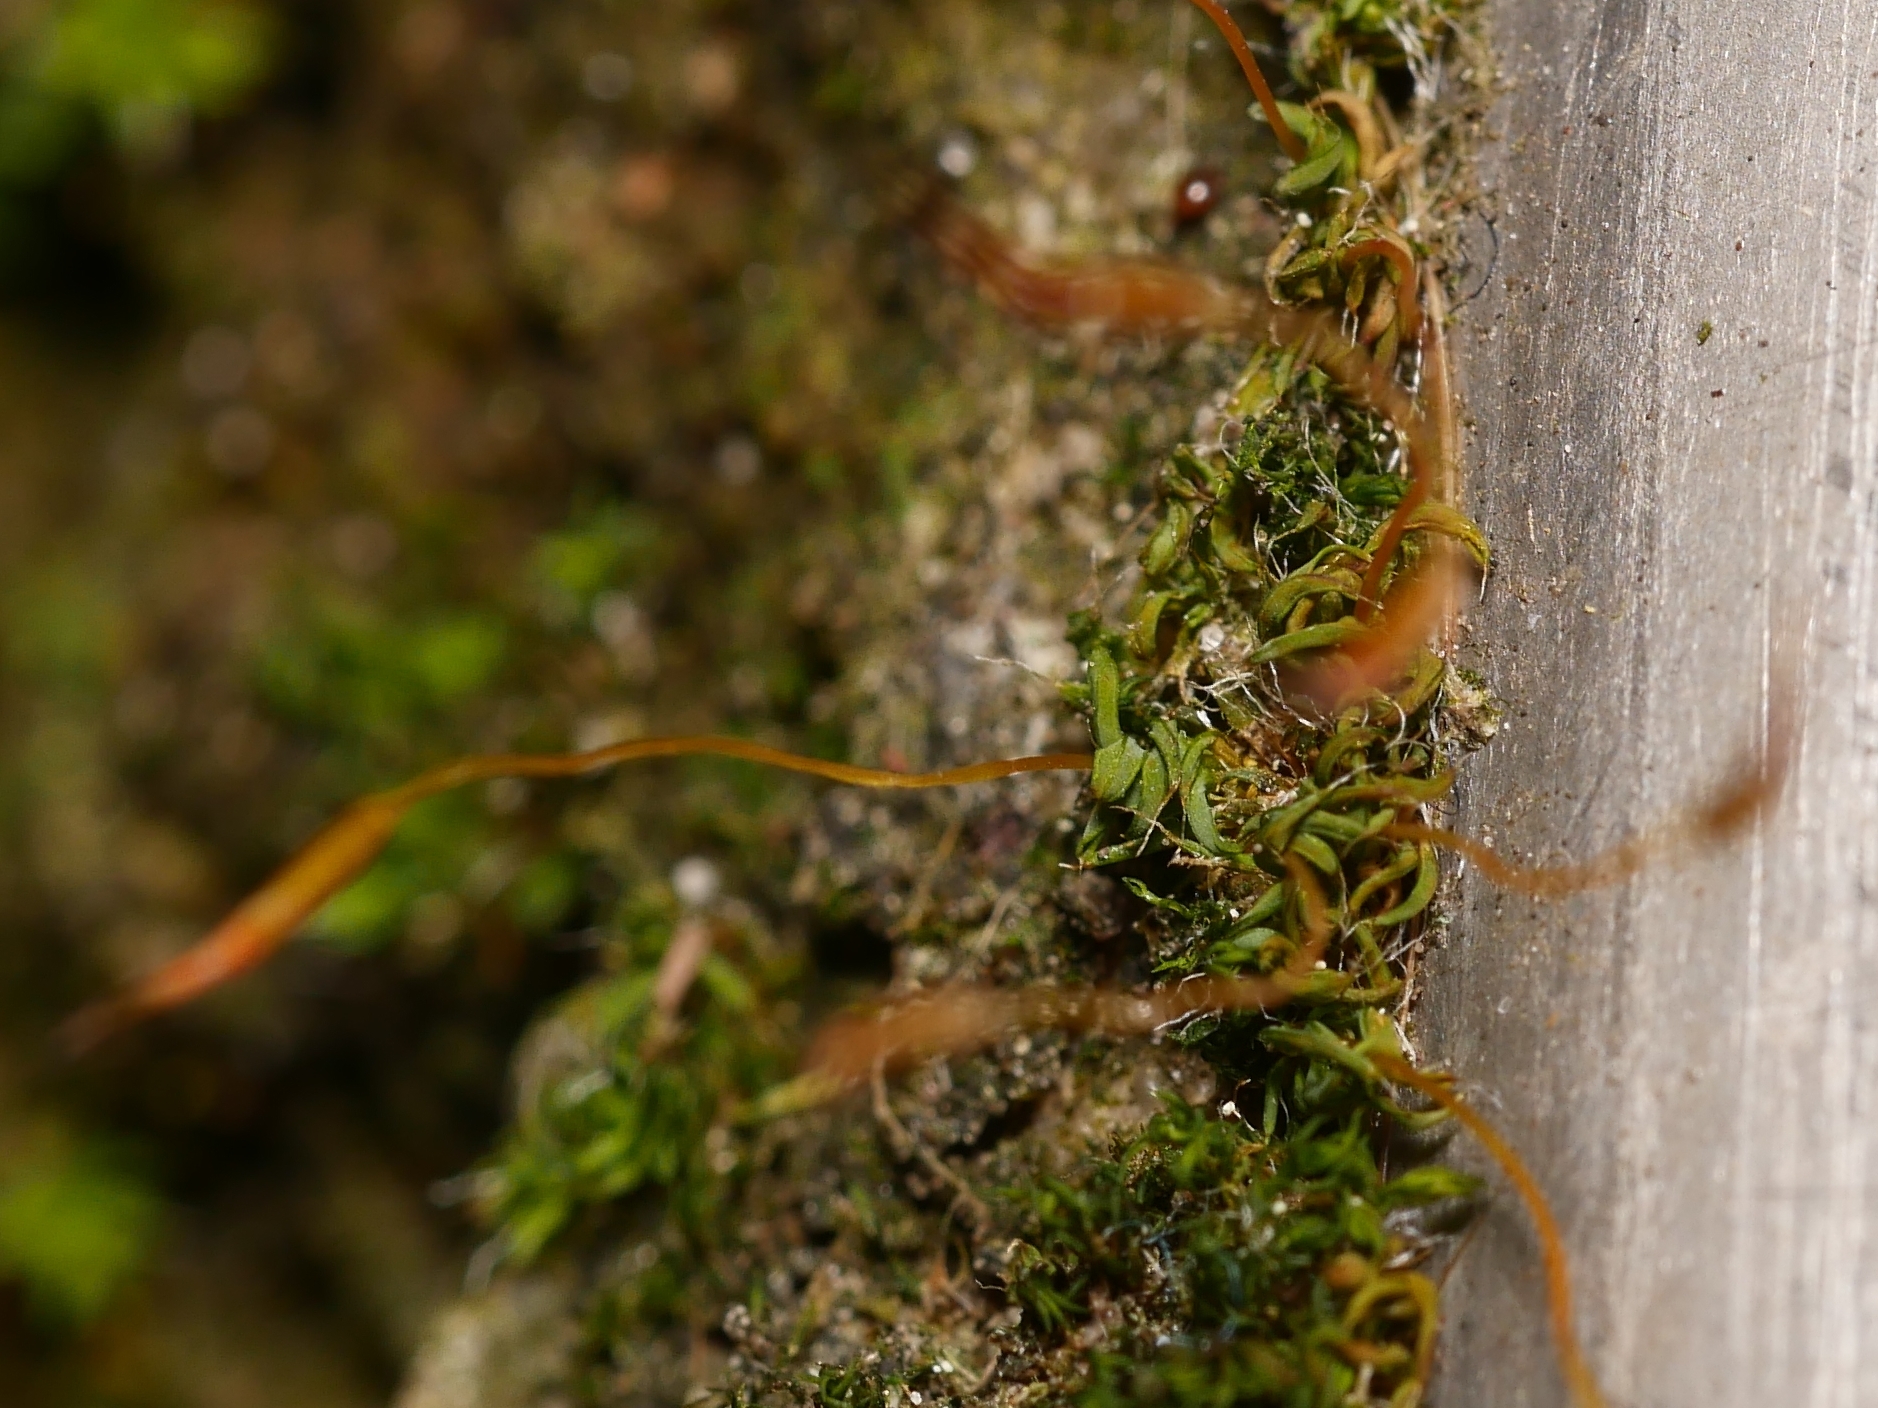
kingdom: Plantae
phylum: Bryophyta
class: Bryopsida
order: Pottiales
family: Pottiaceae
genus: Tortula
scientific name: Tortula muralis
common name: Wall screw-moss
